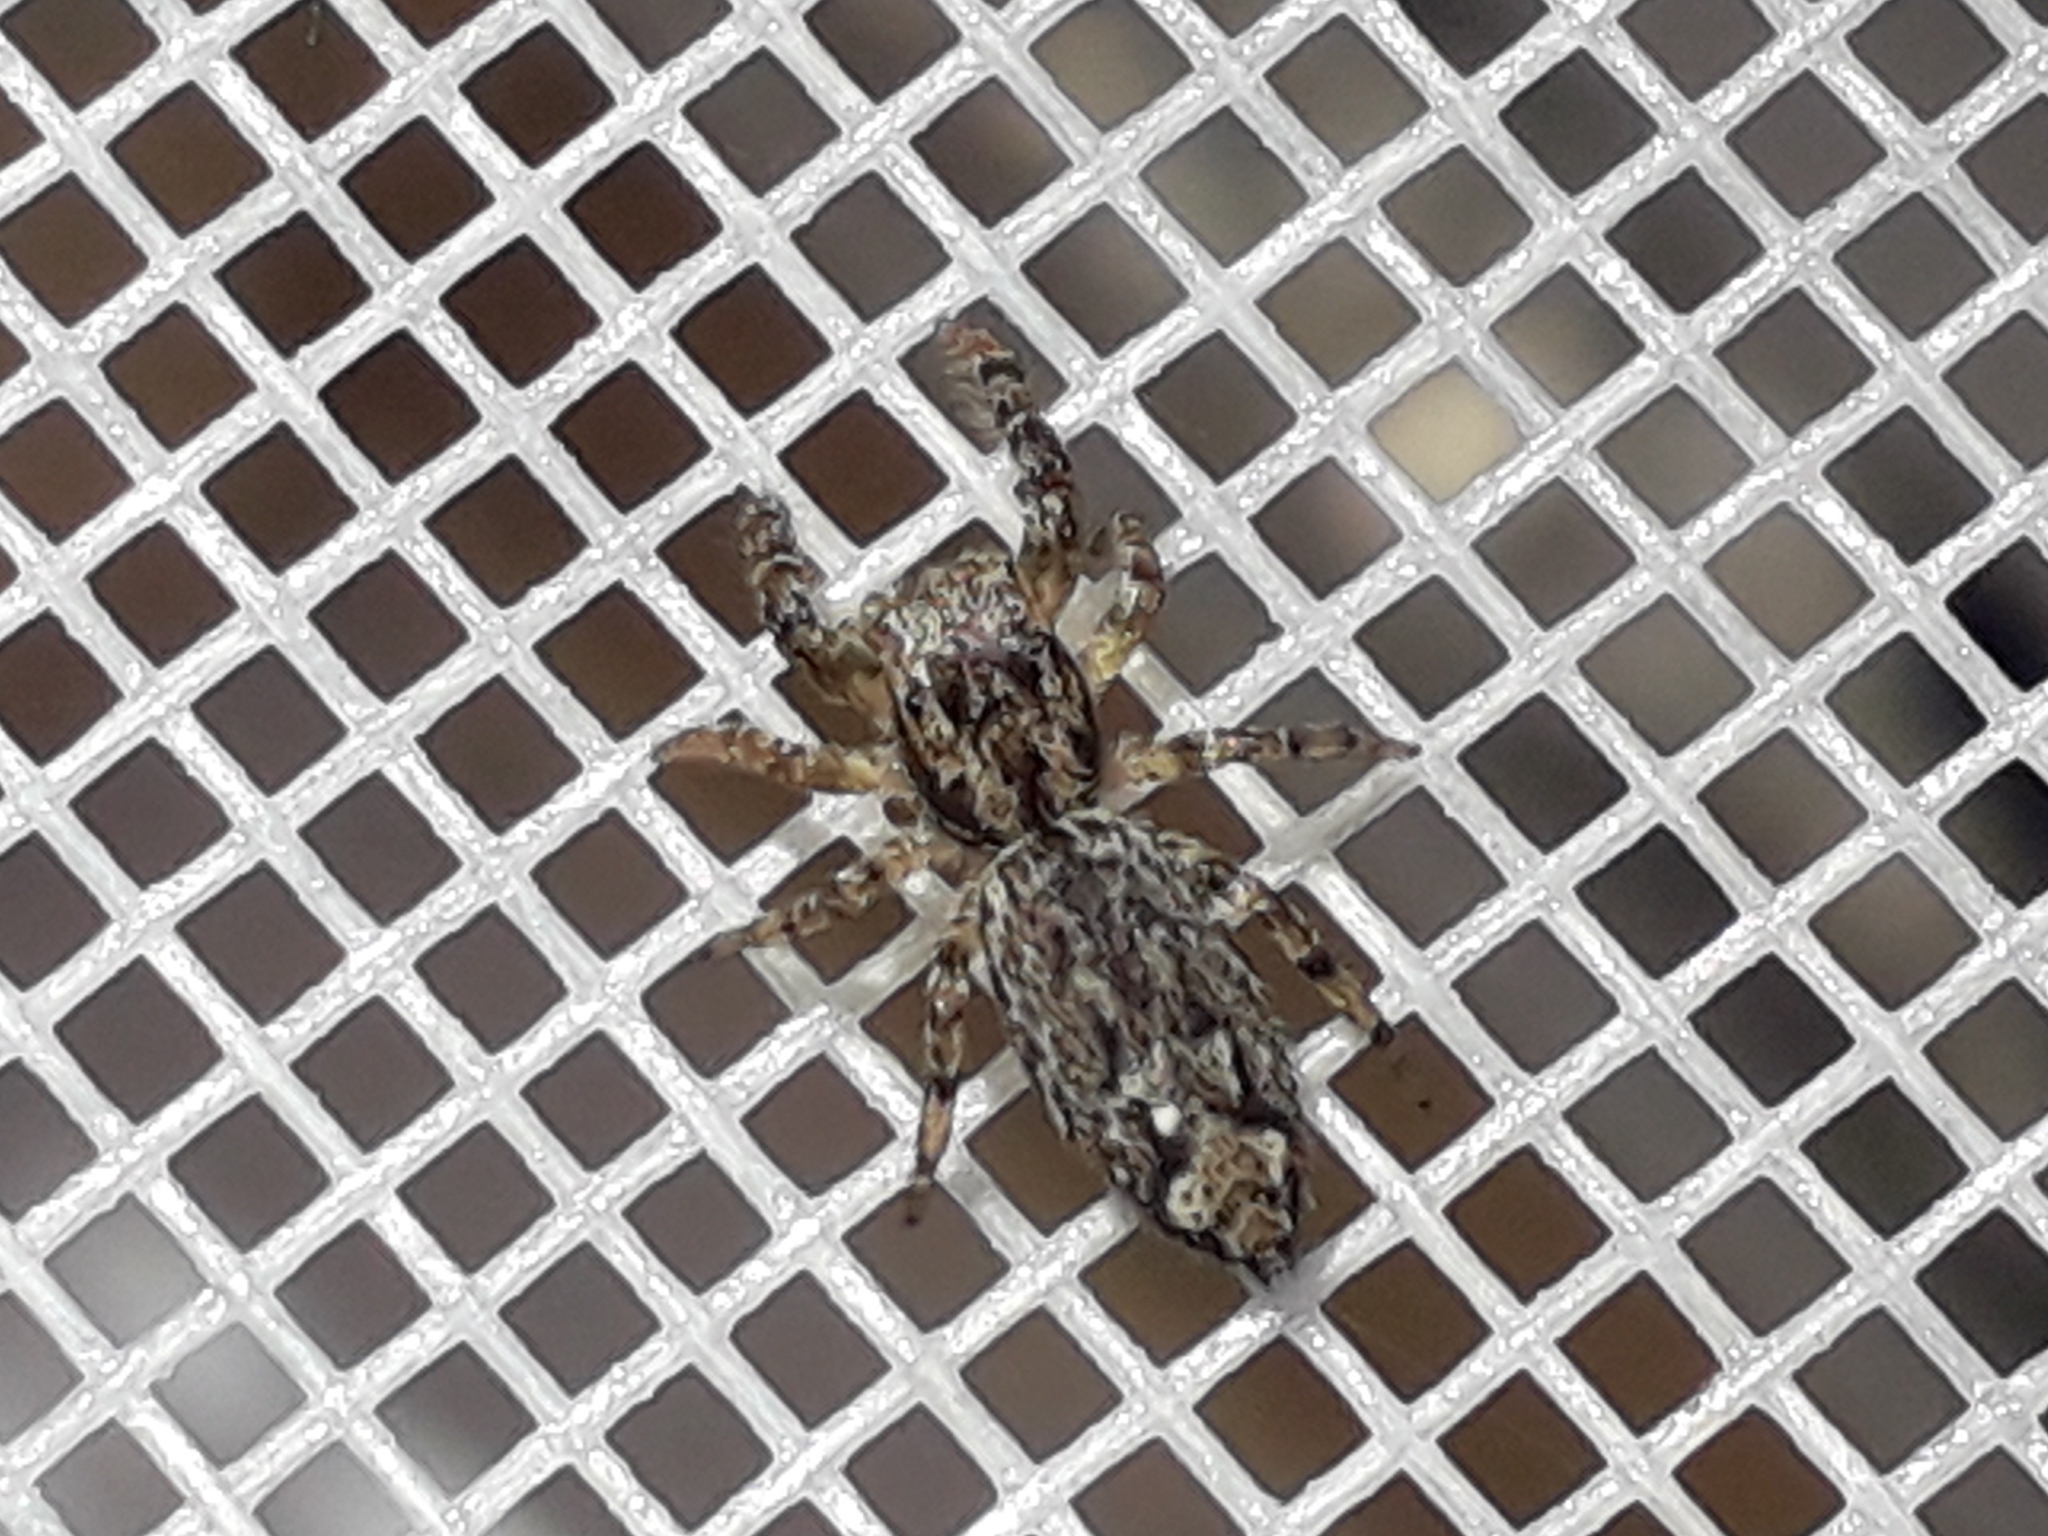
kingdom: Animalia
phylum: Arthropoda
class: Arachnida
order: Araneae
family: Salticidae
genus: Marpissa
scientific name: Marpissa muscosa
